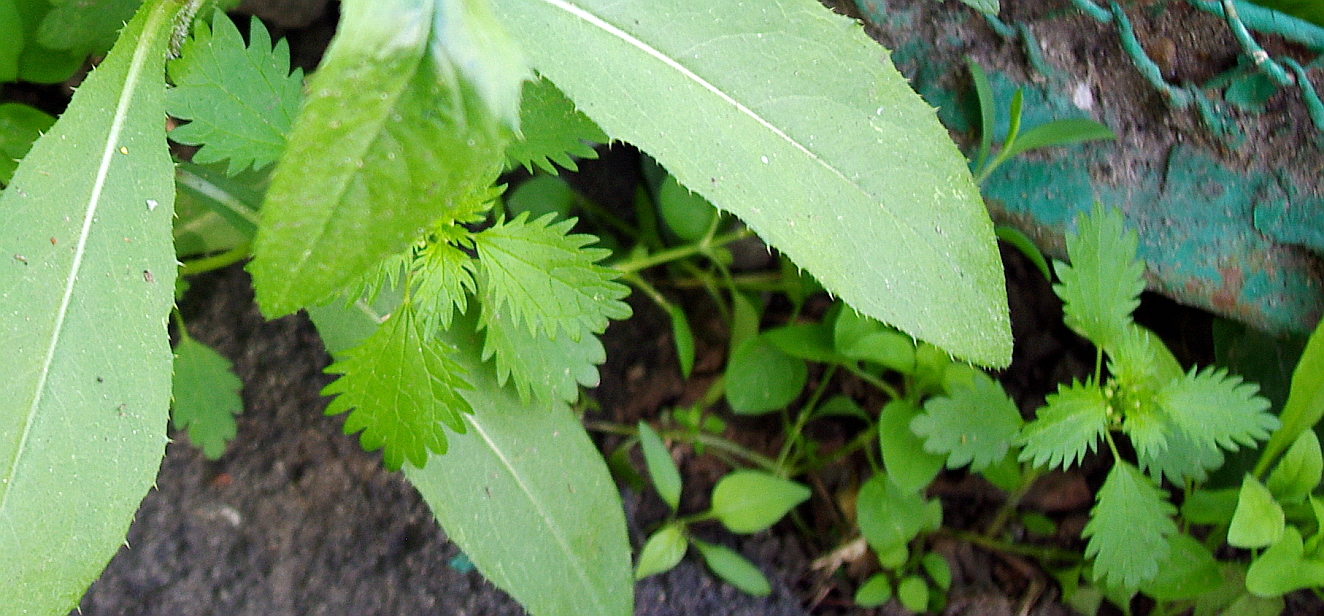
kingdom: Plantae
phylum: Tracheophyta
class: Magnoliopsida
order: Rosales
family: Urticaceae
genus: Urtica
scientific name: Urtica urens
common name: Dwarf nettle
